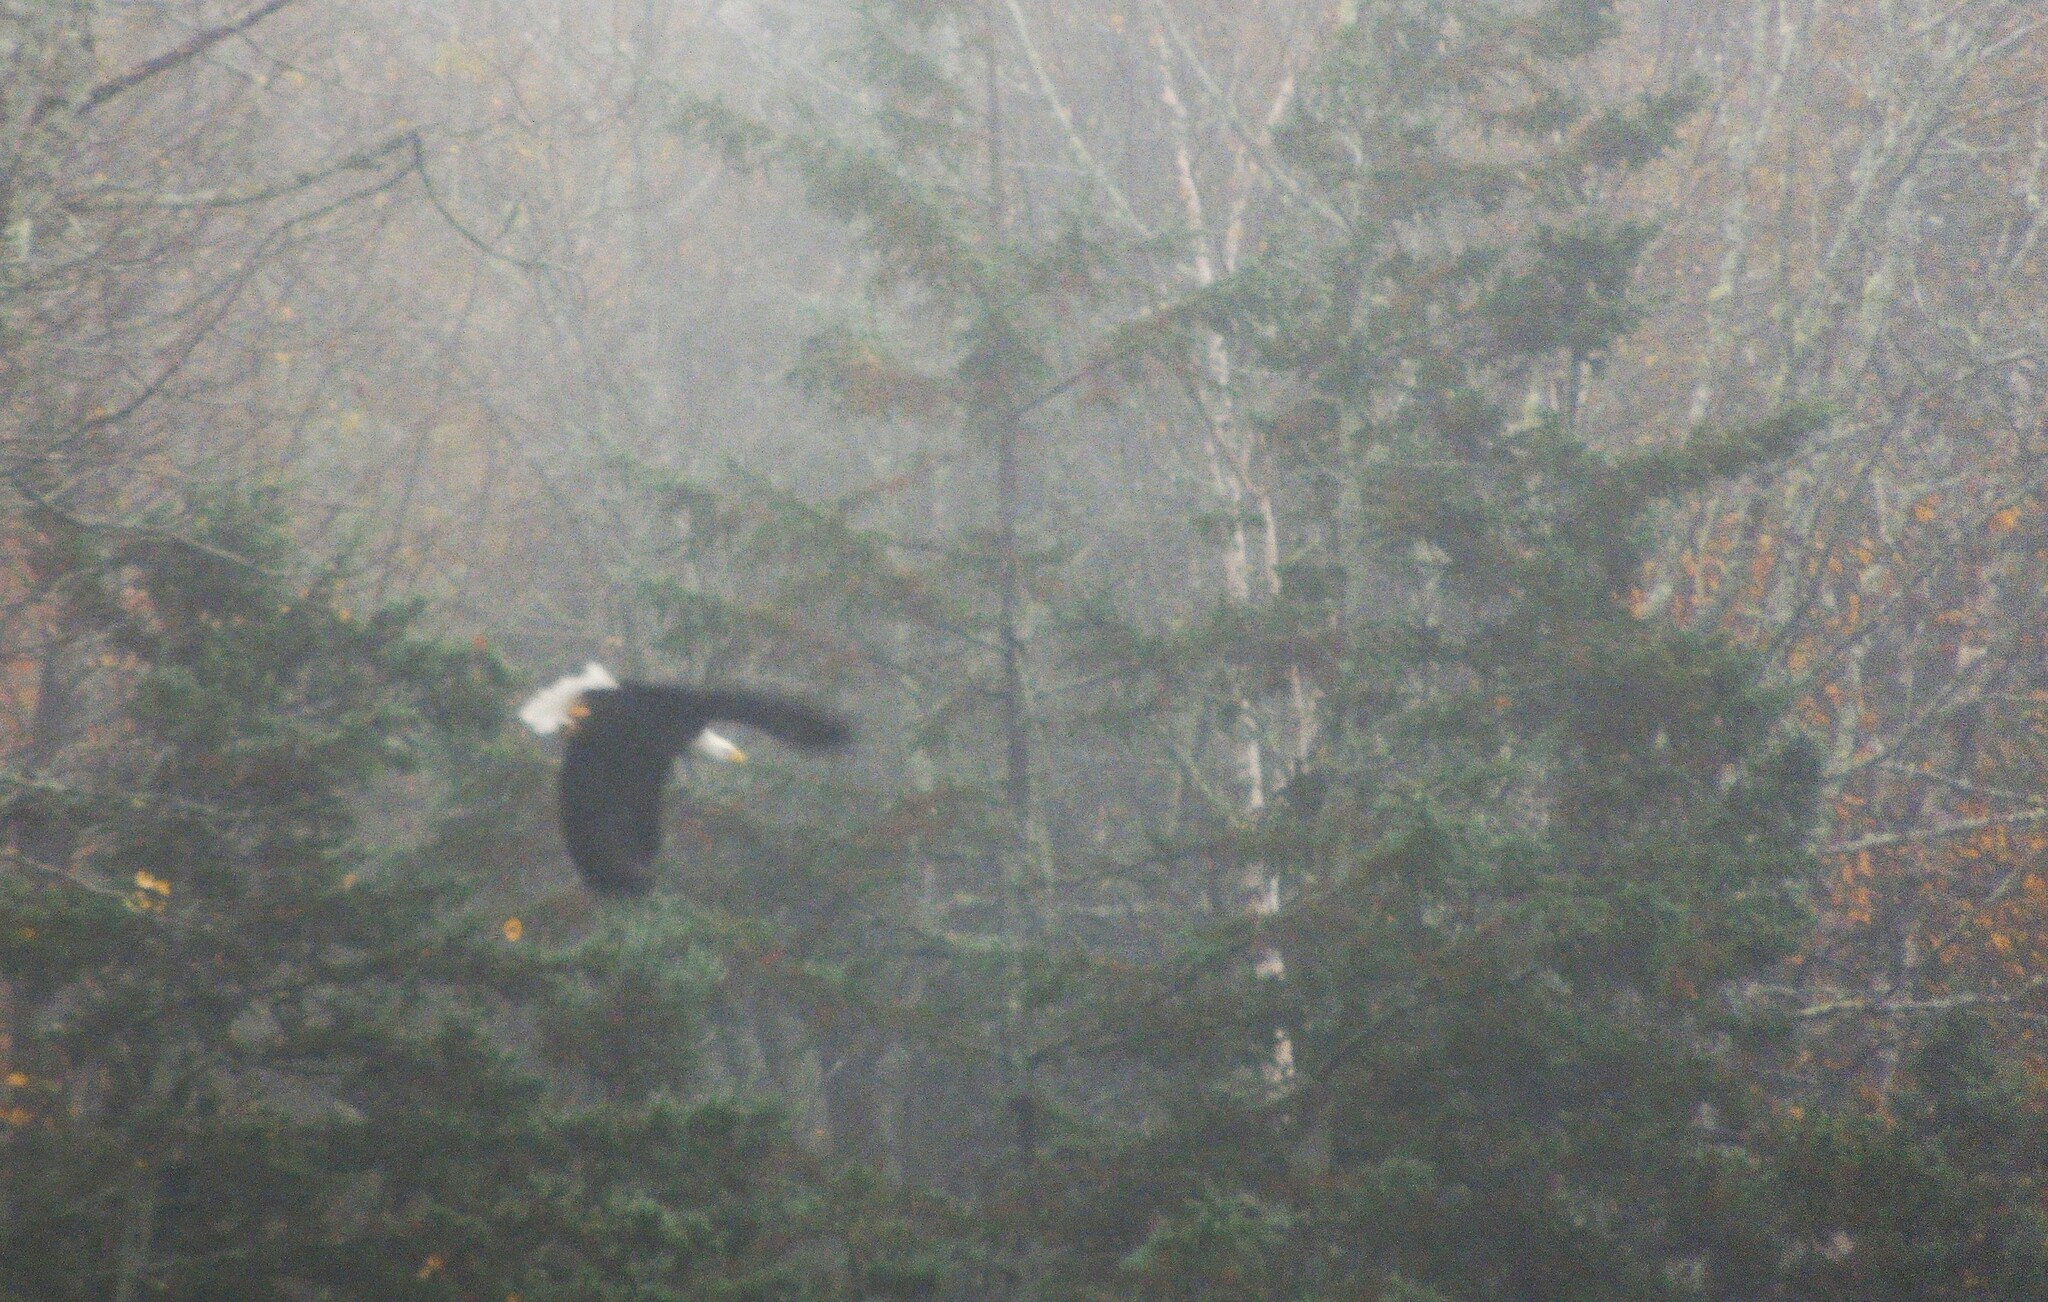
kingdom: Animalia
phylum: Chordata
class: Aves
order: Accipitriformes
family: Accipitridae
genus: Haliaeetus
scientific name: Haliaeetus leucocephalus
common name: Bald eagle
